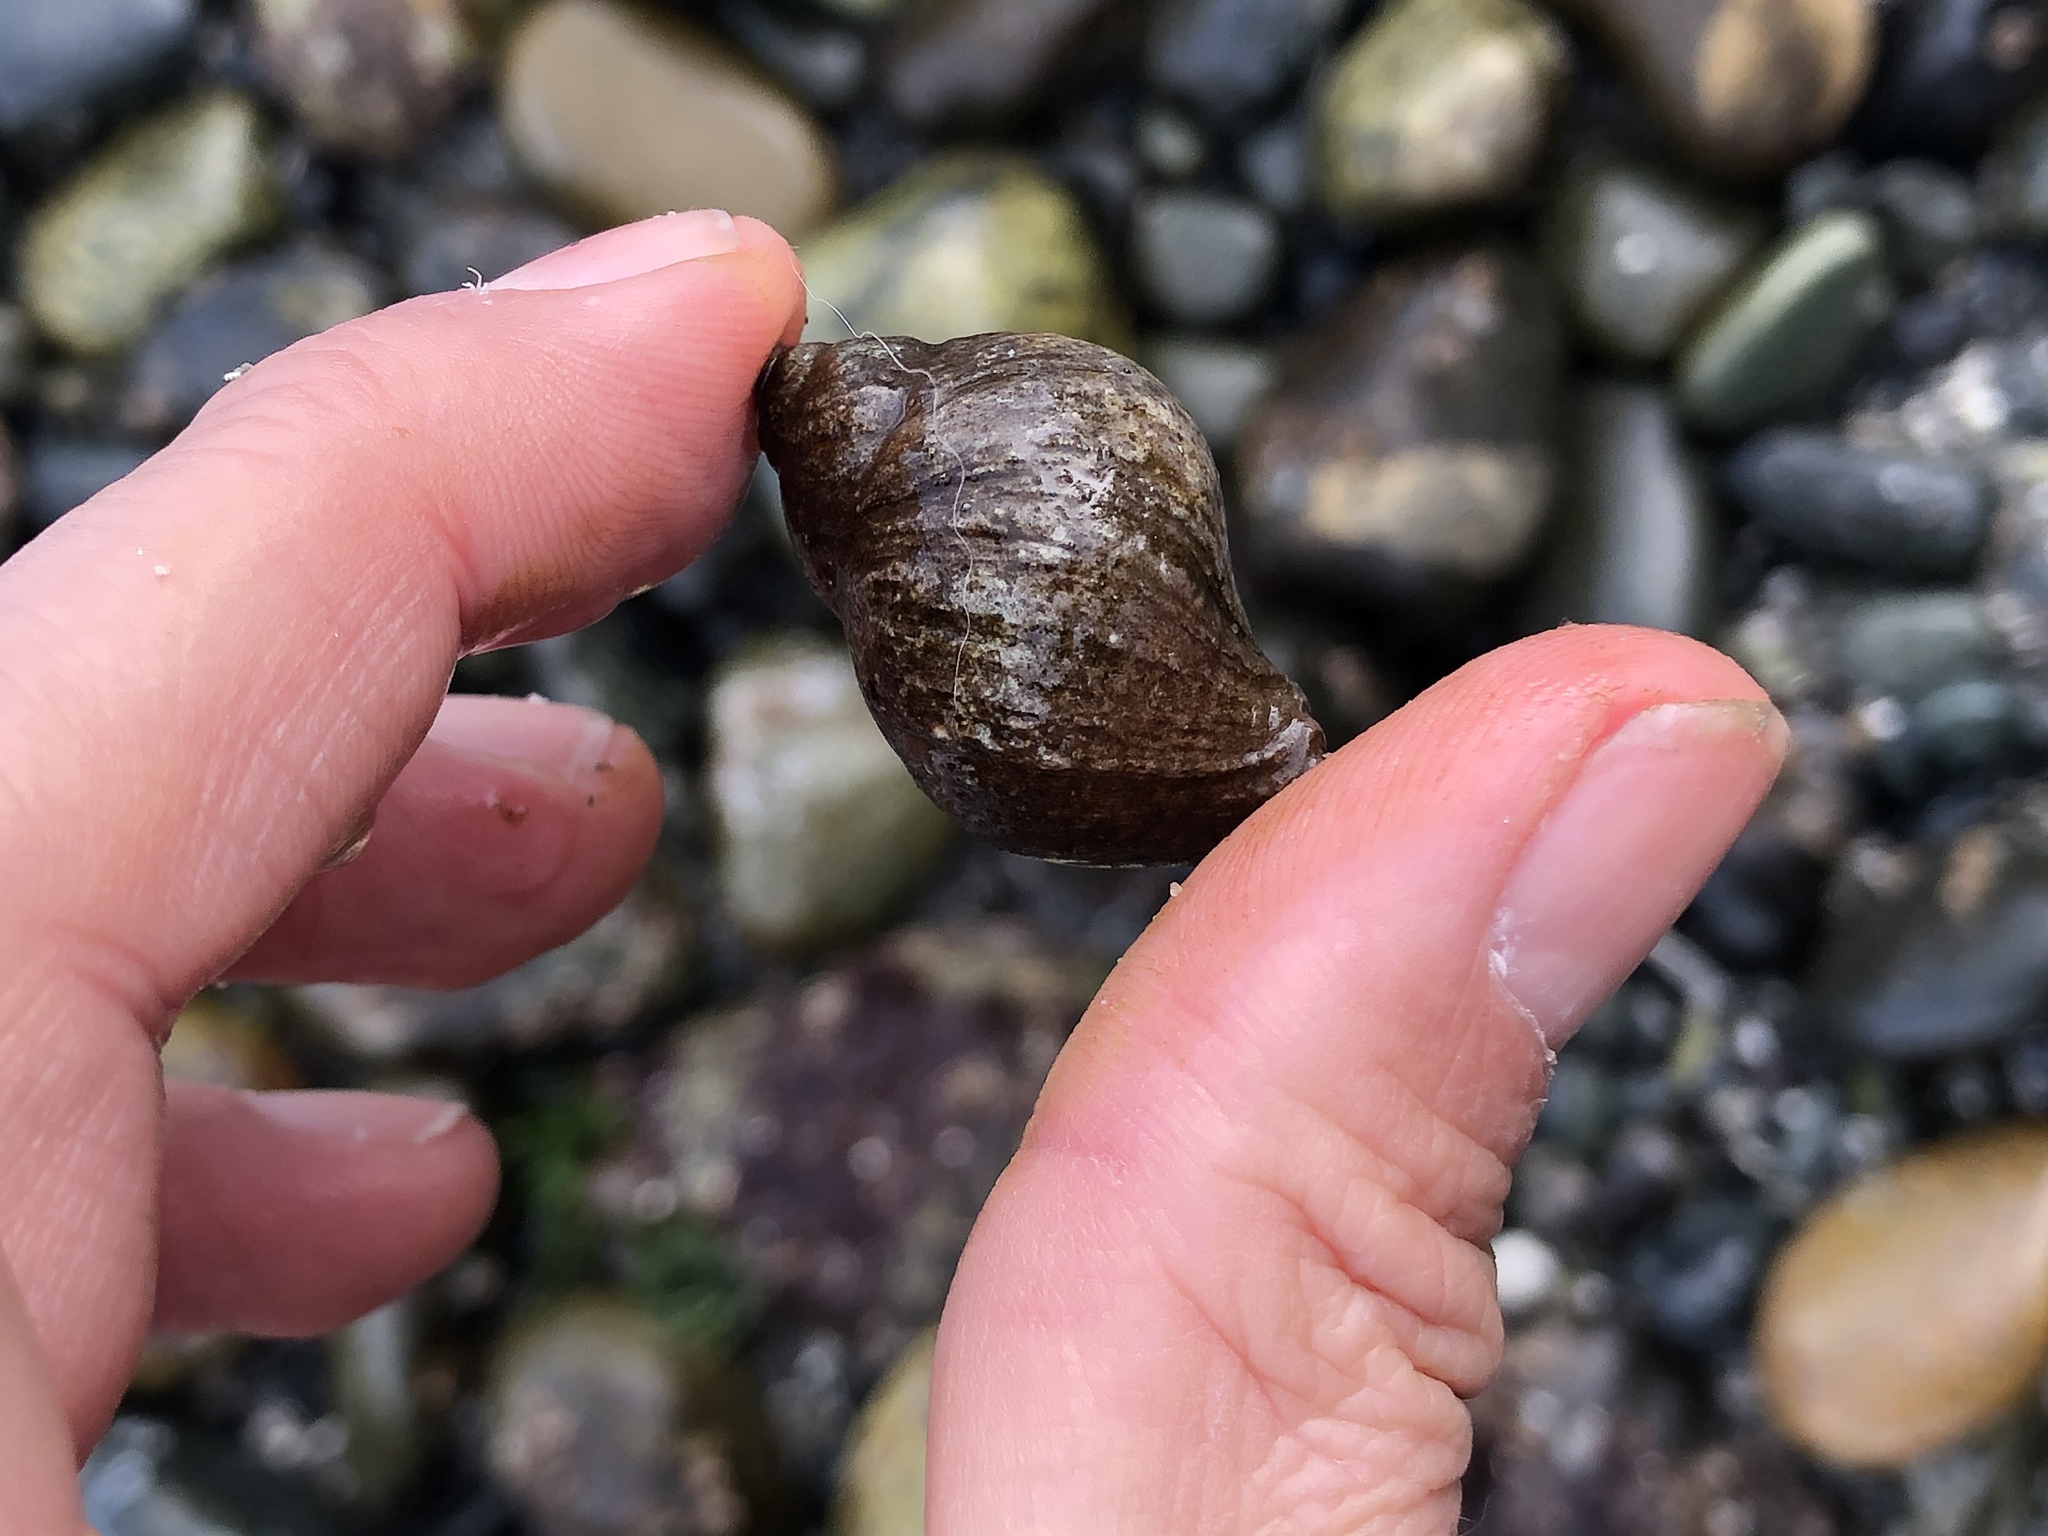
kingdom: Animalia
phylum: Mollusca
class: Gastropoda
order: Neogastropoda
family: Muricidae
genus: Nucella
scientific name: Nucella lamellosa
